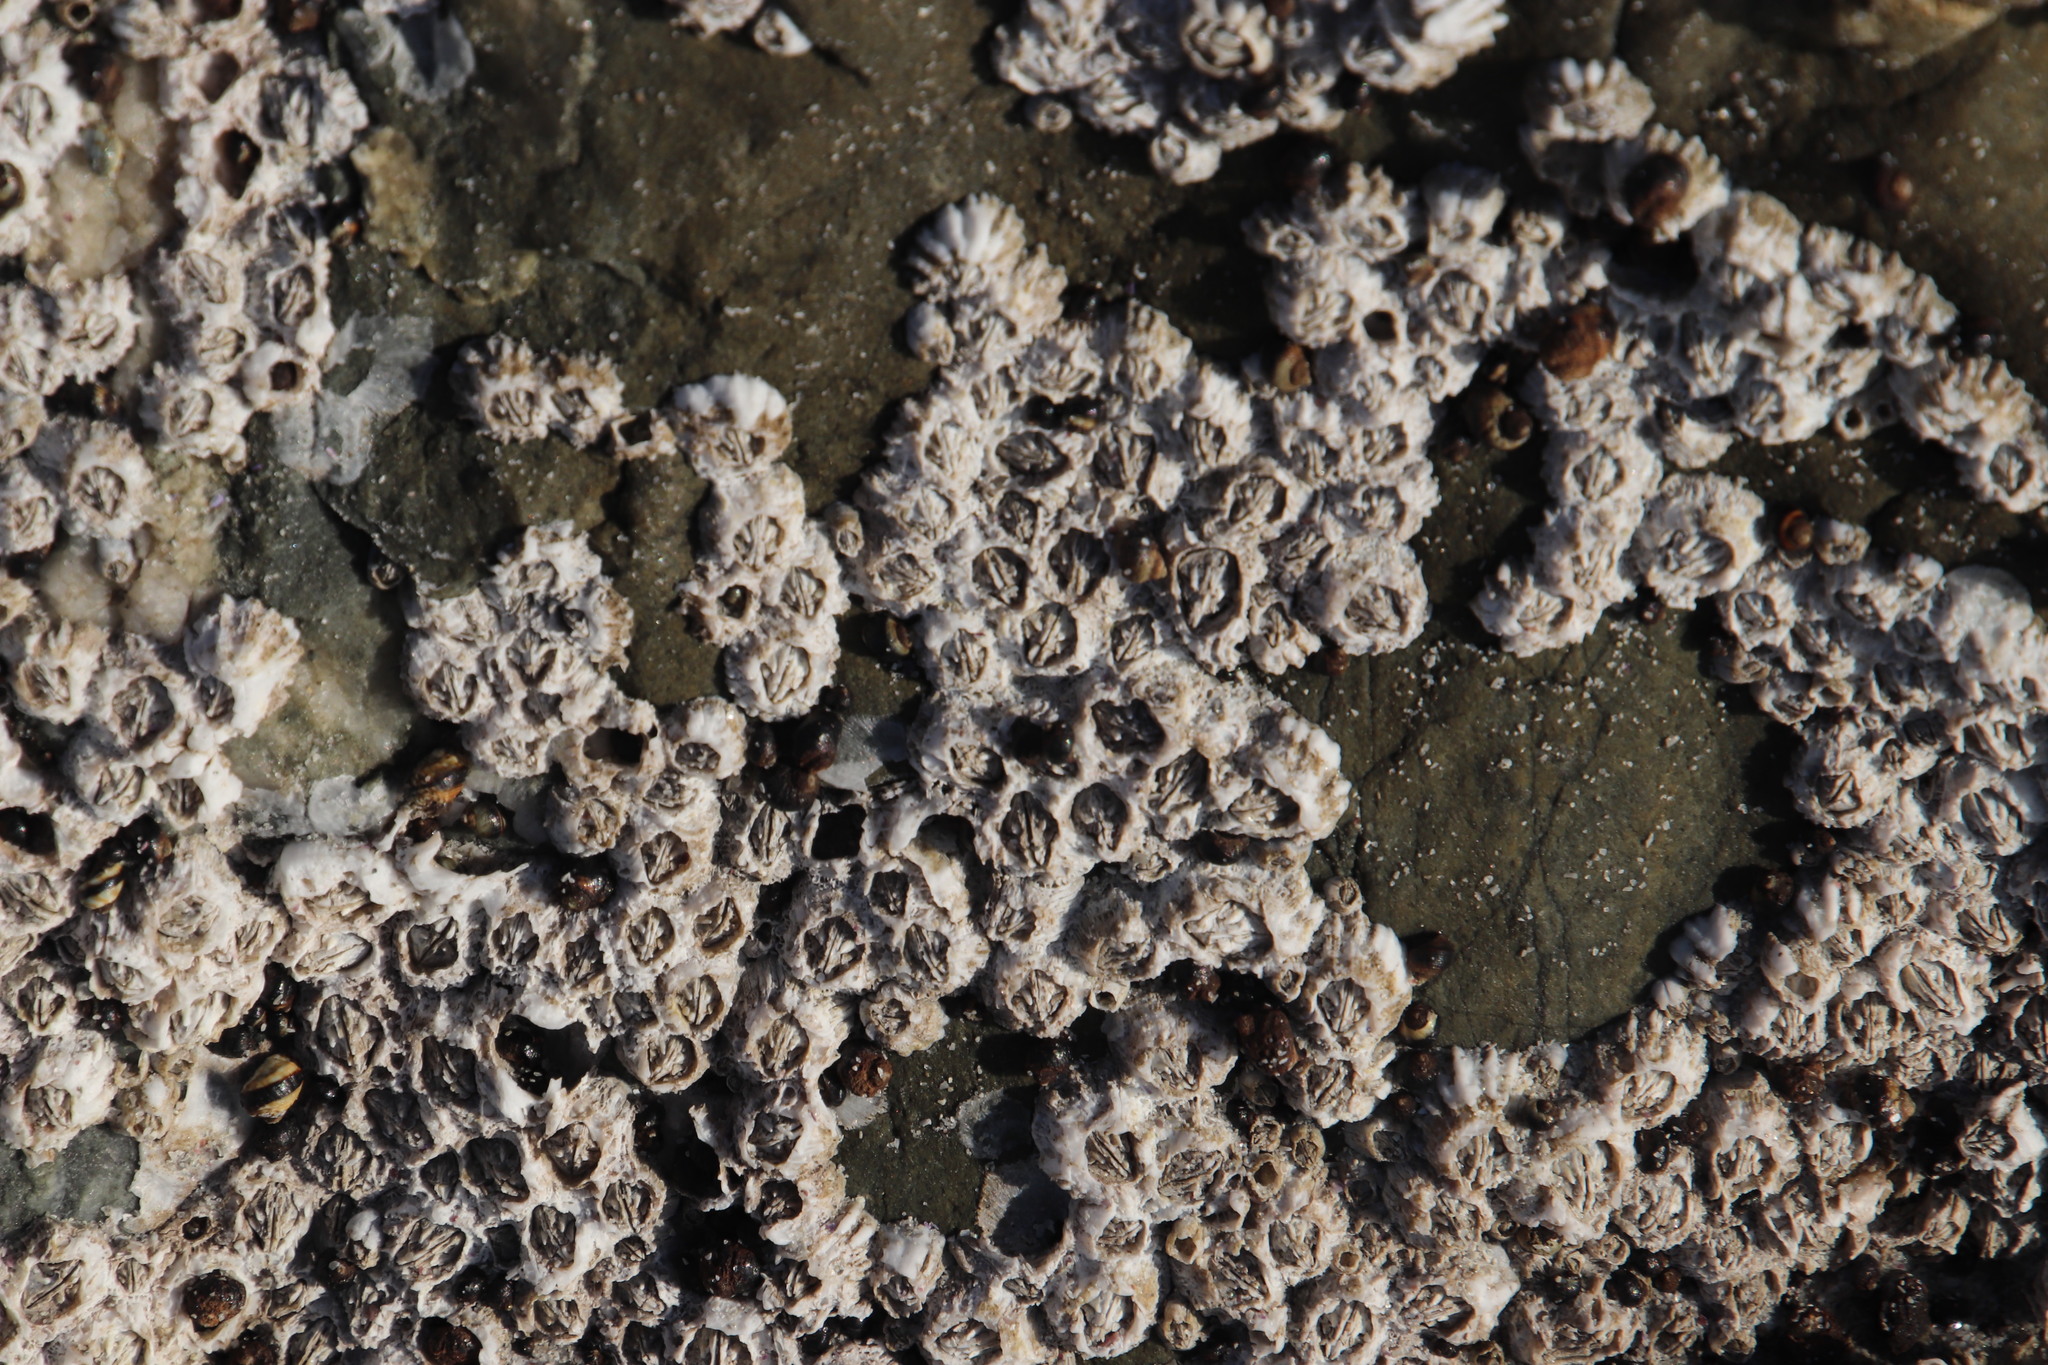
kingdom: Animalia
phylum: Arthropoda
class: Maxillopoda
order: Sessilia
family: Balanidae
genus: Balanus
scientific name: Balanus glandula
